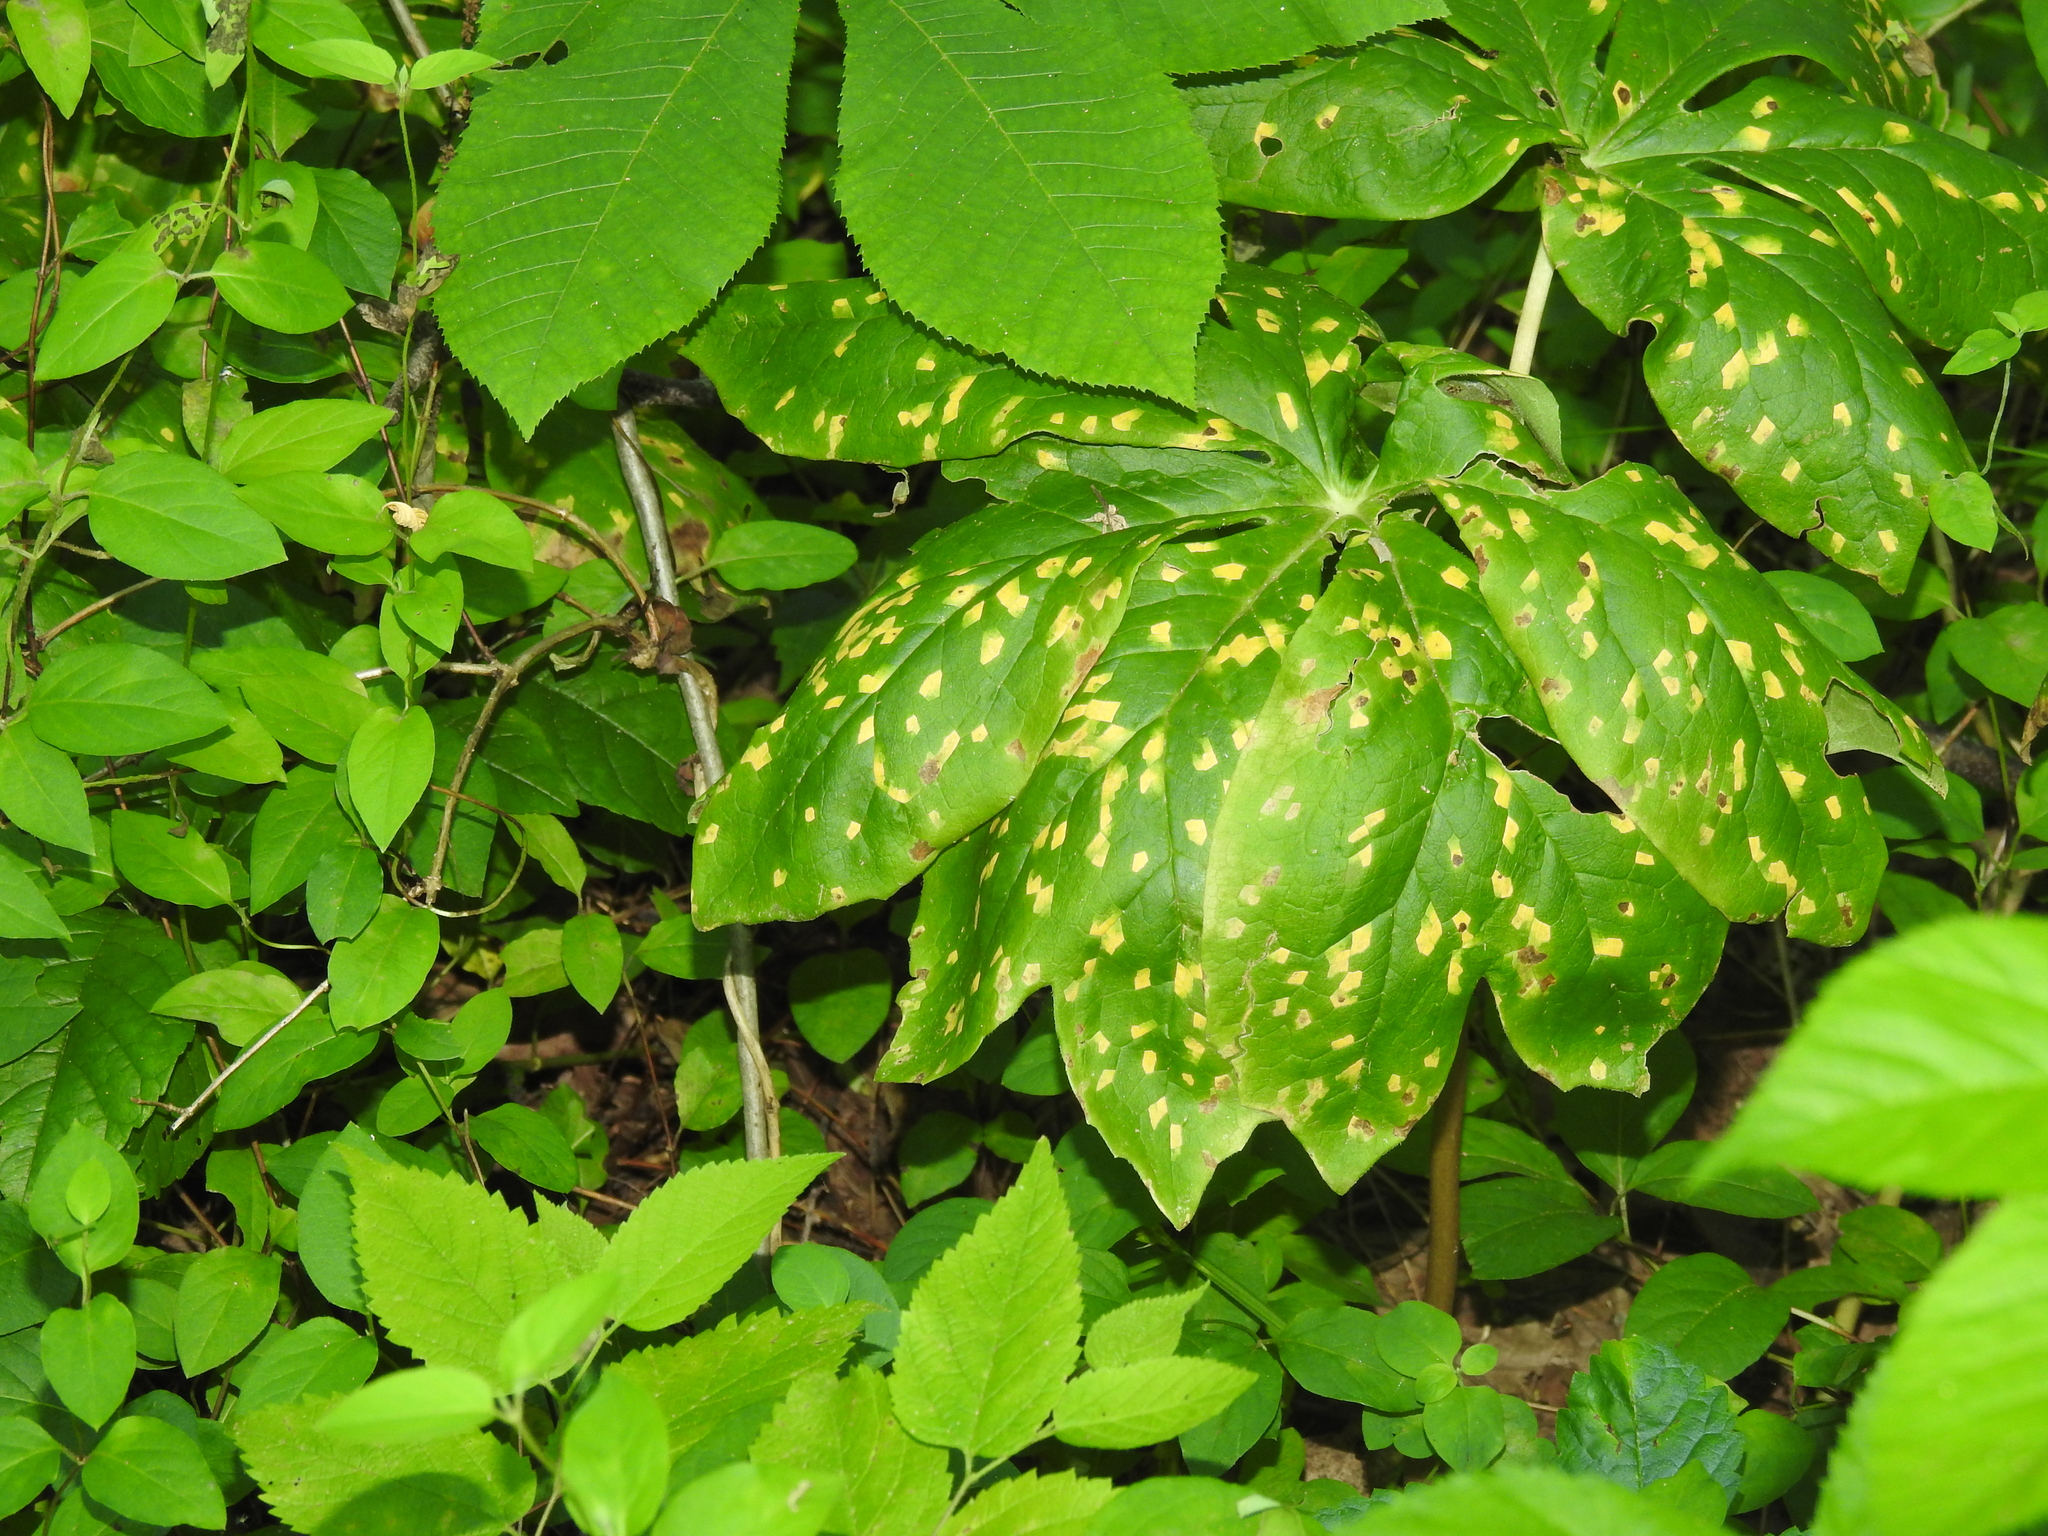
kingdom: Plantae
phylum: Tracheophyta
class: Magnoliopsida
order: Ranunculales
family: Berberidaceae
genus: Podophyllum
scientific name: Podophyllum peltatum
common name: Wild mandrake
